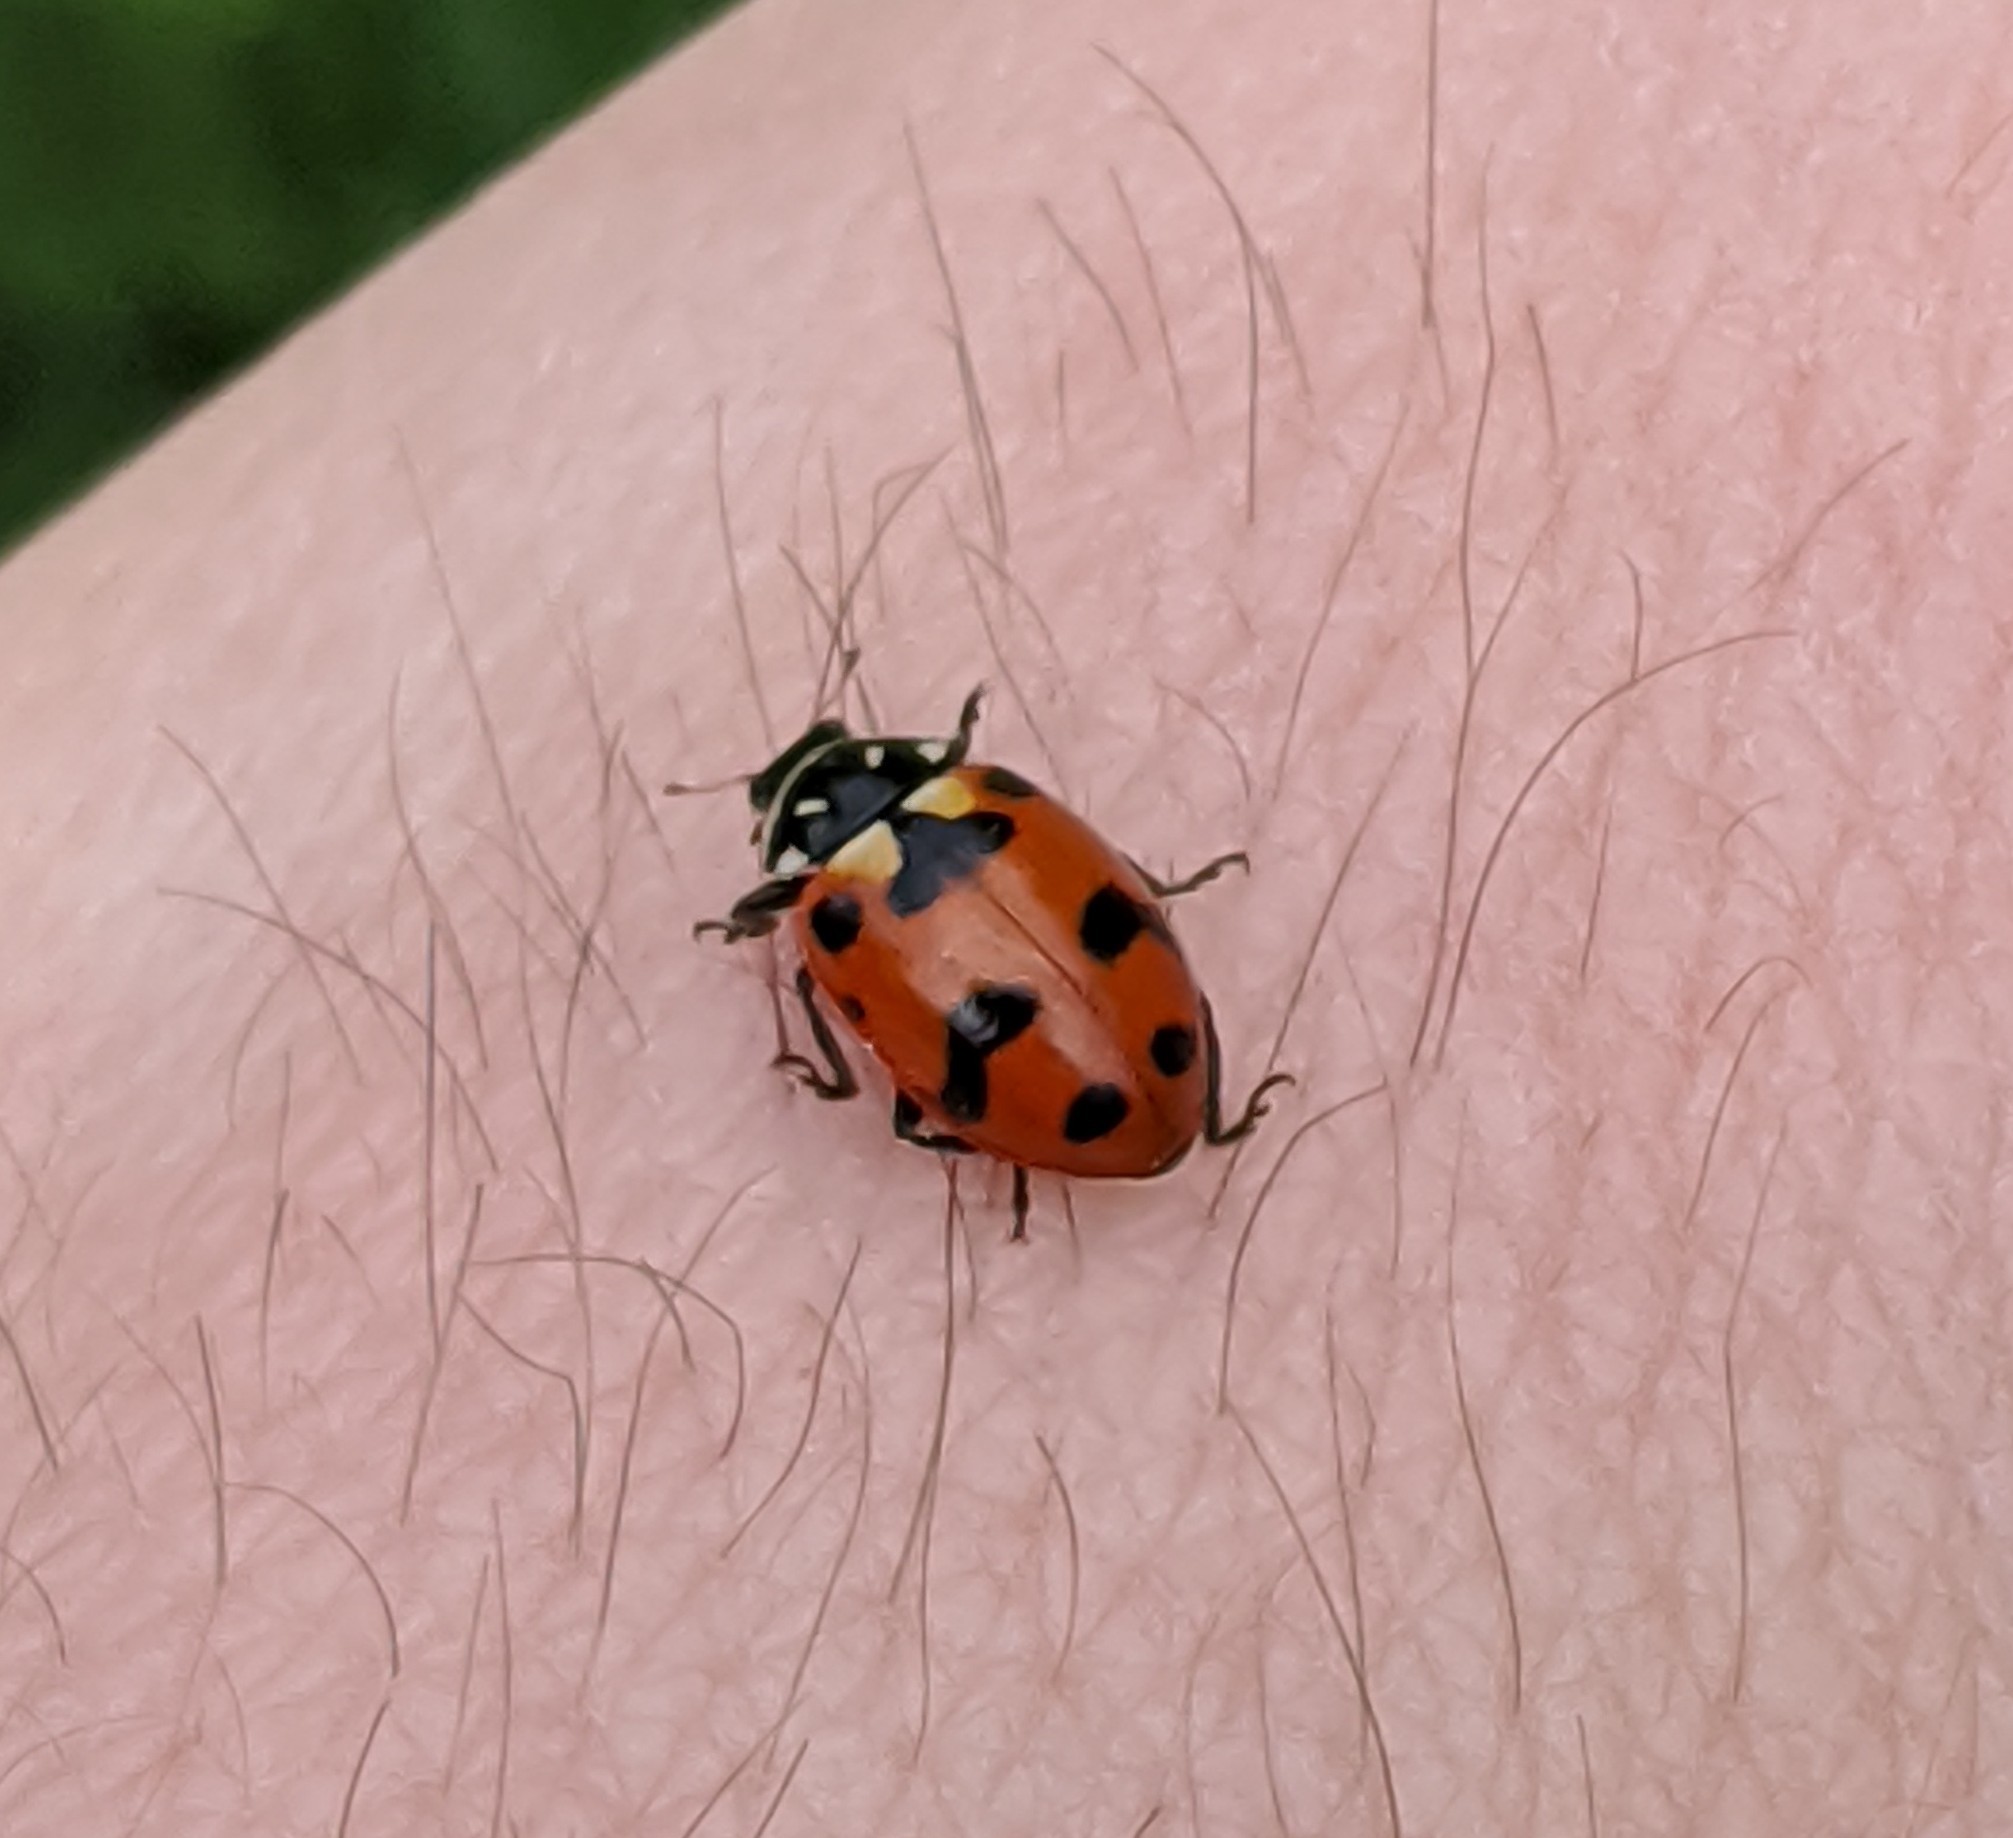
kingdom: Animalia
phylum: Arthropoda
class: Insecta
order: Coleoptera
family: Coccinellidae
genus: Hippodamia
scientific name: Hippodamia convergens
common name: Convergent lady beetle
